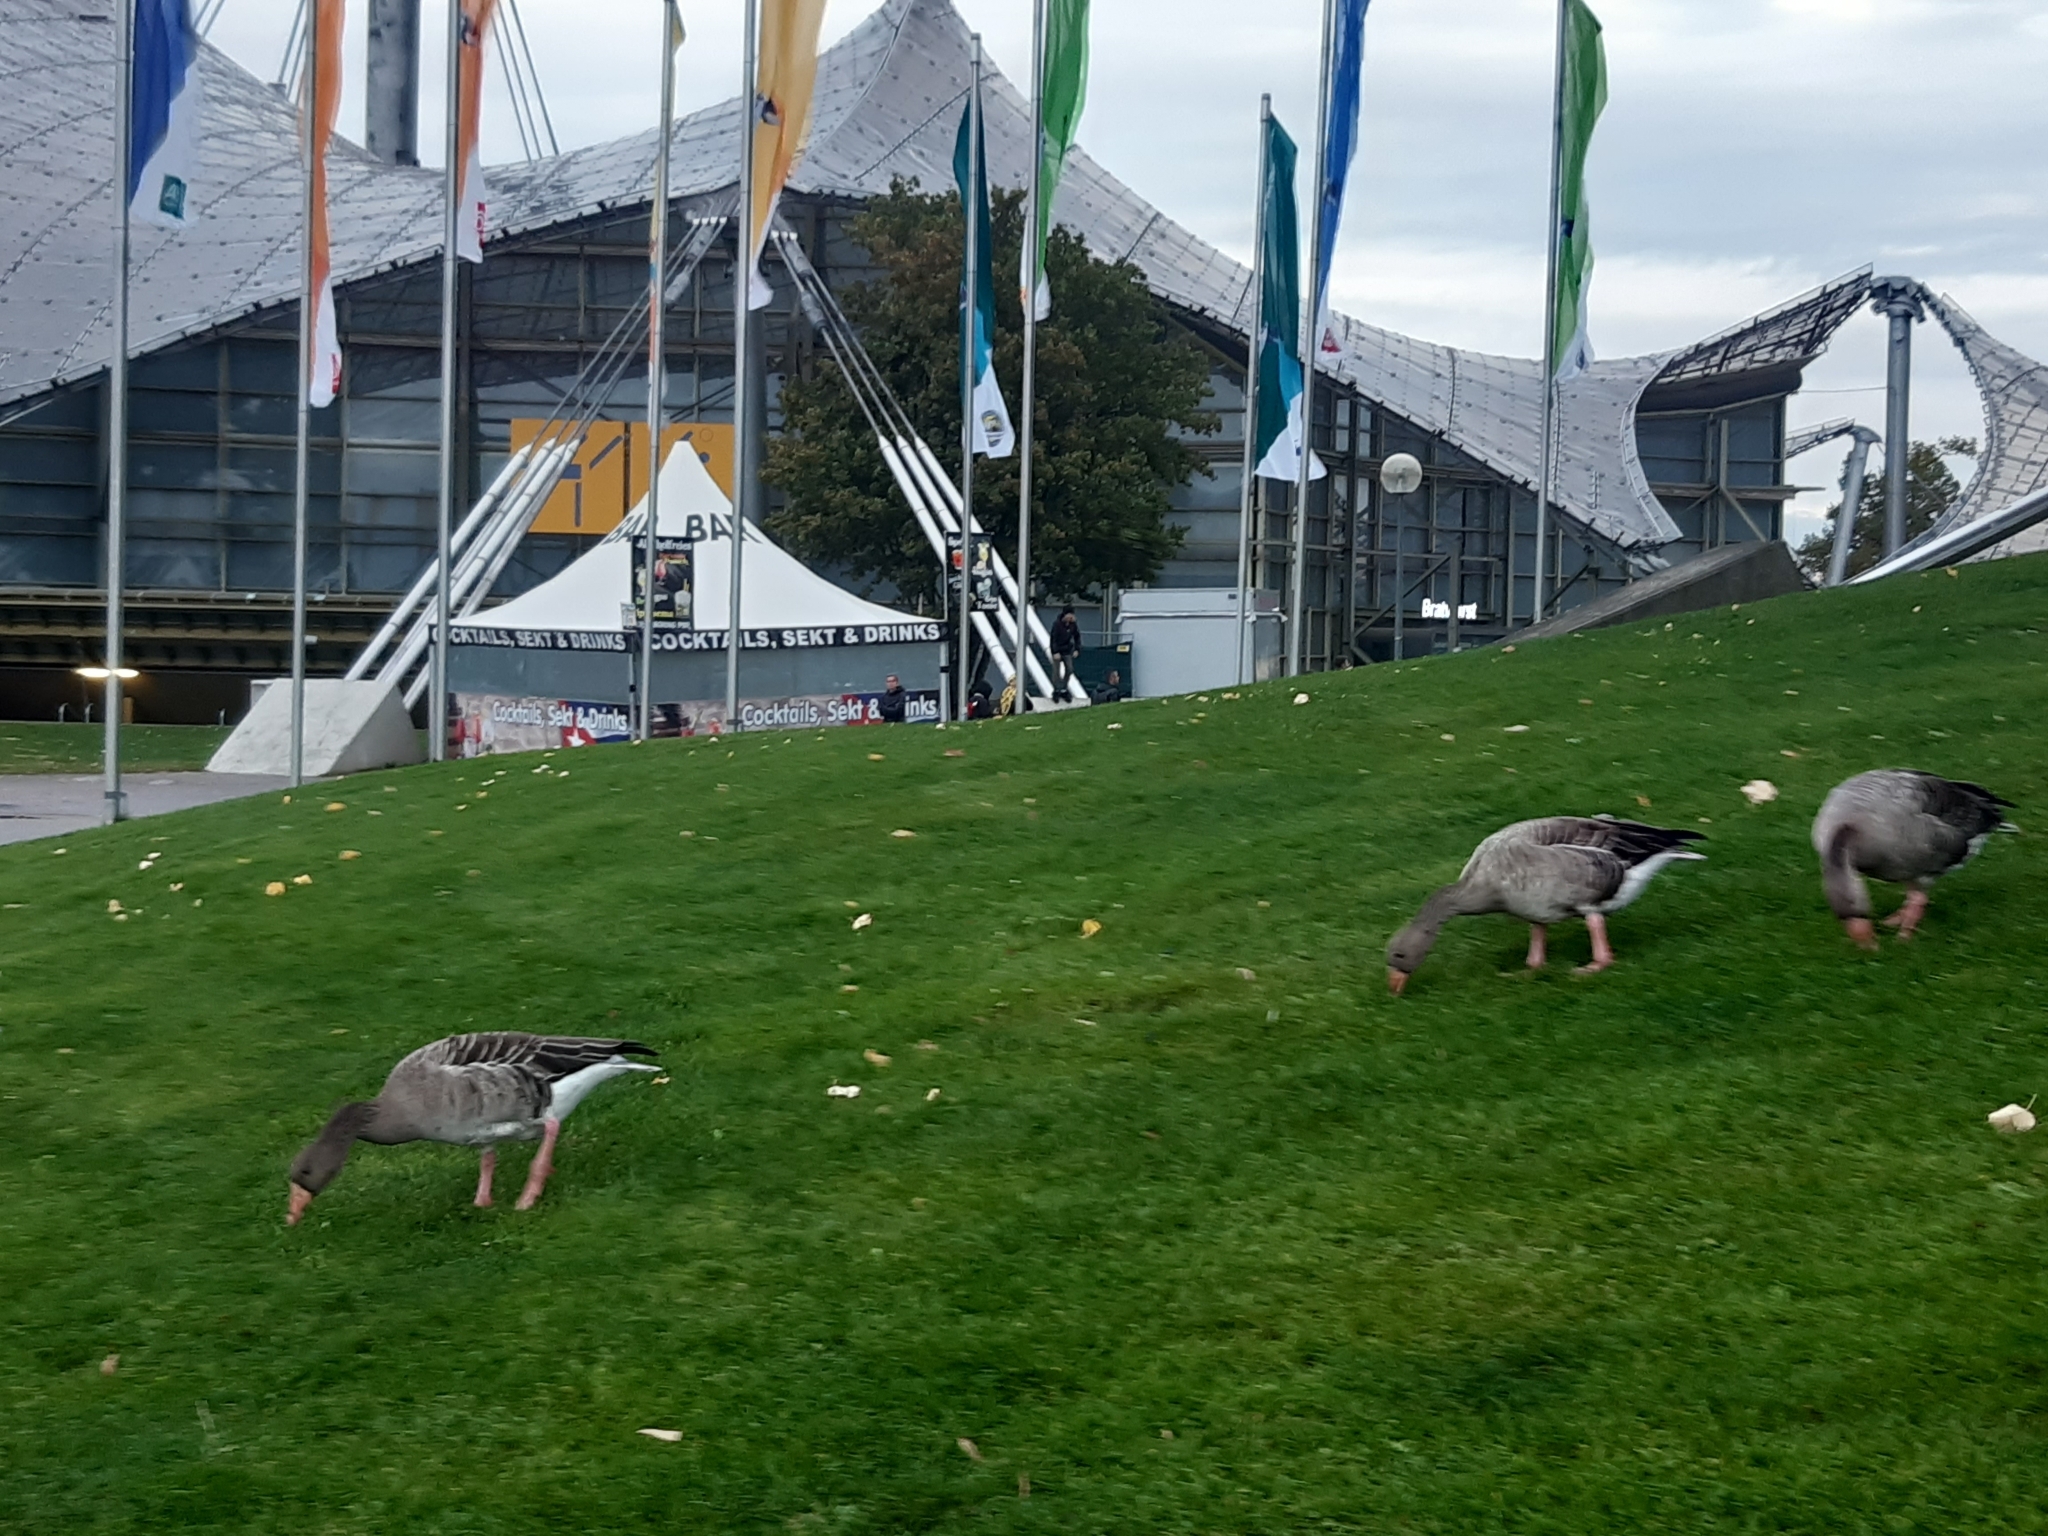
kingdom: Animalia
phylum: Chordata
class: Aves
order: Anseriformes
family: Anatidae
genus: Anser
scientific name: Anser anser
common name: Greylag goose
